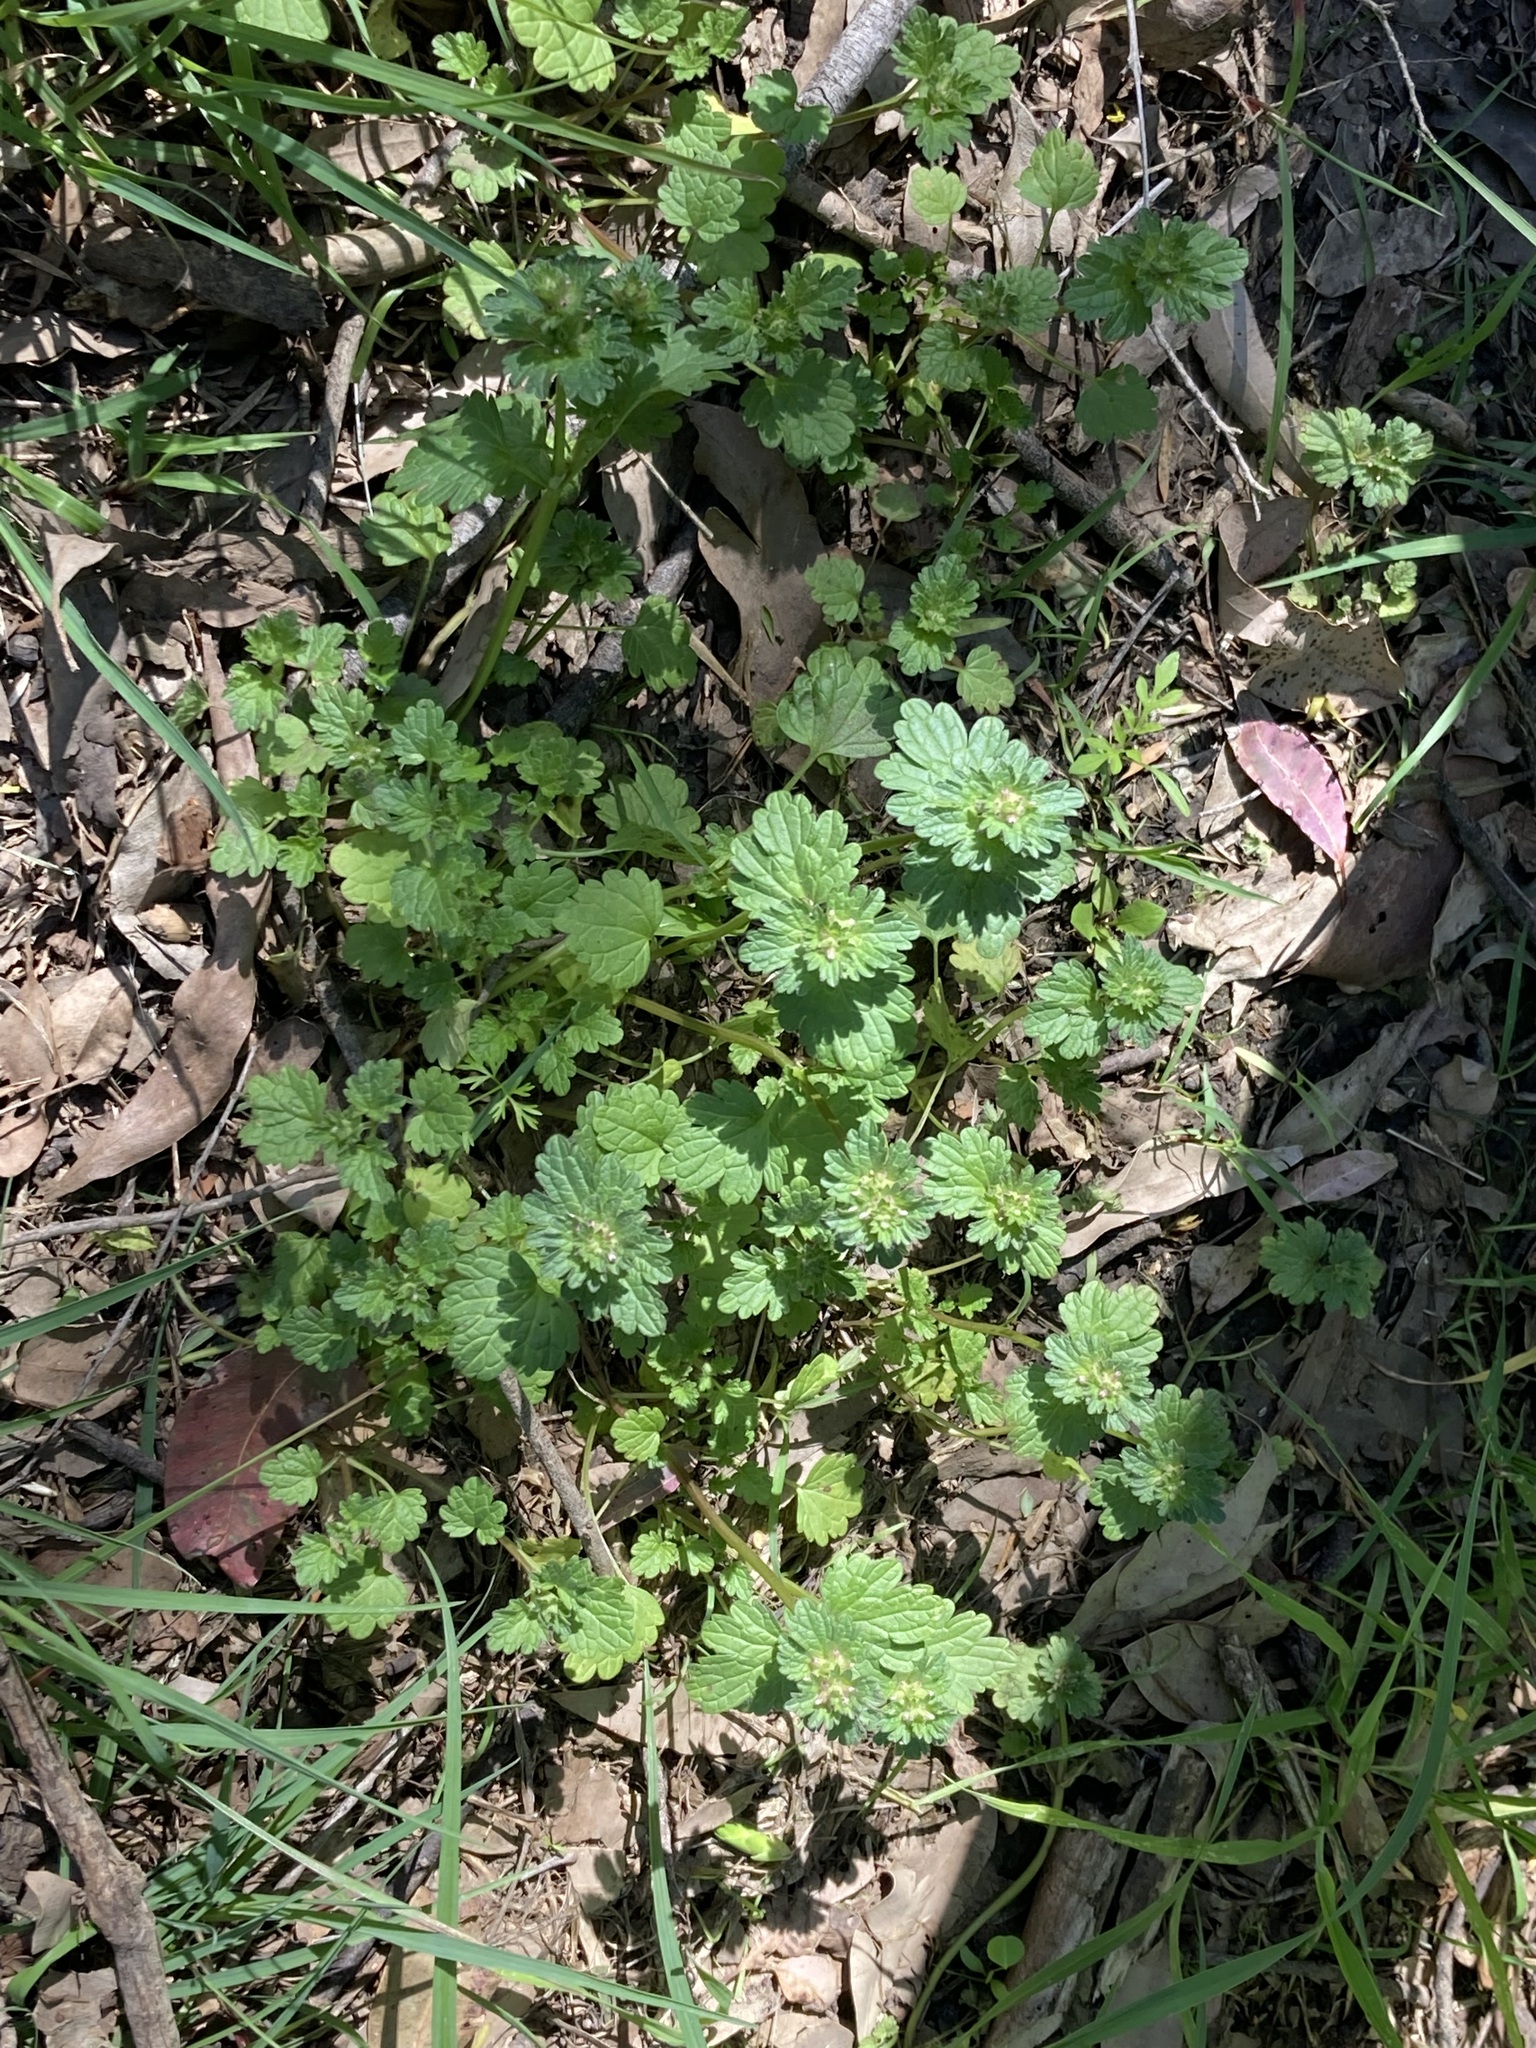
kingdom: Plantae
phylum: Tracheophyta
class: Magnoliopsida
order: Lamiales
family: Lamiaceae
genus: Lamium
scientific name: Lamium amplexicaule
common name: Henbit dead-nettle
